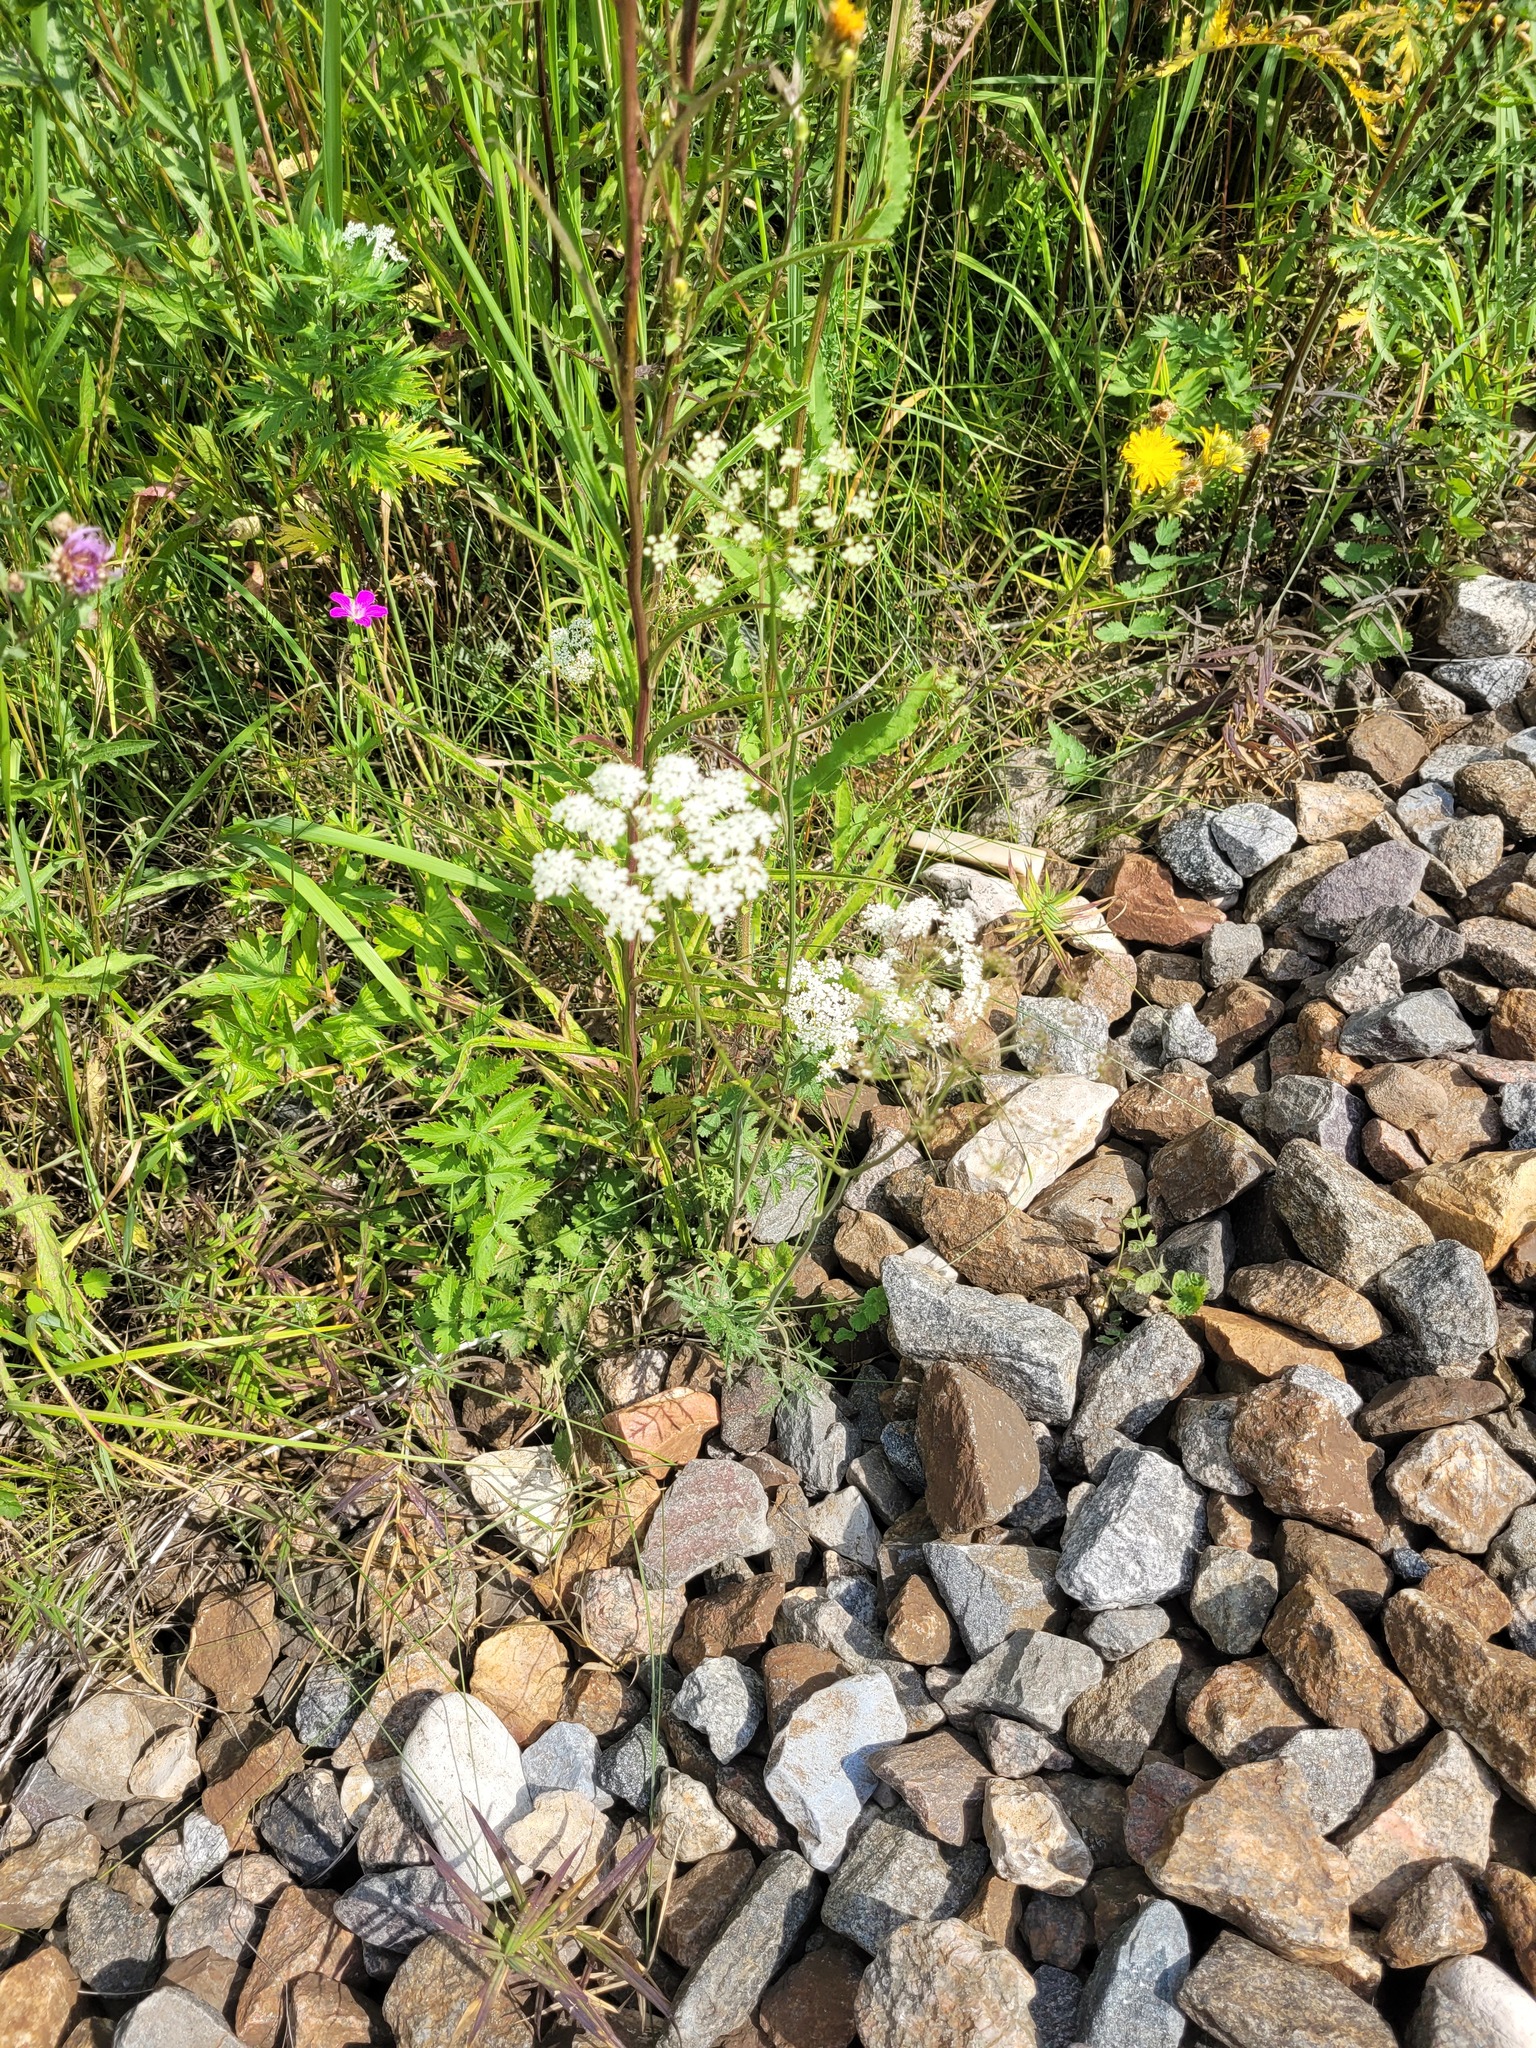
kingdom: Plantae
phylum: Tracheophyta
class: Magnoliopsida
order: Apiales
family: Apiaceae
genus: Pimpinella
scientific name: Pimpinella saxifraga
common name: Burnet-saxifrage
